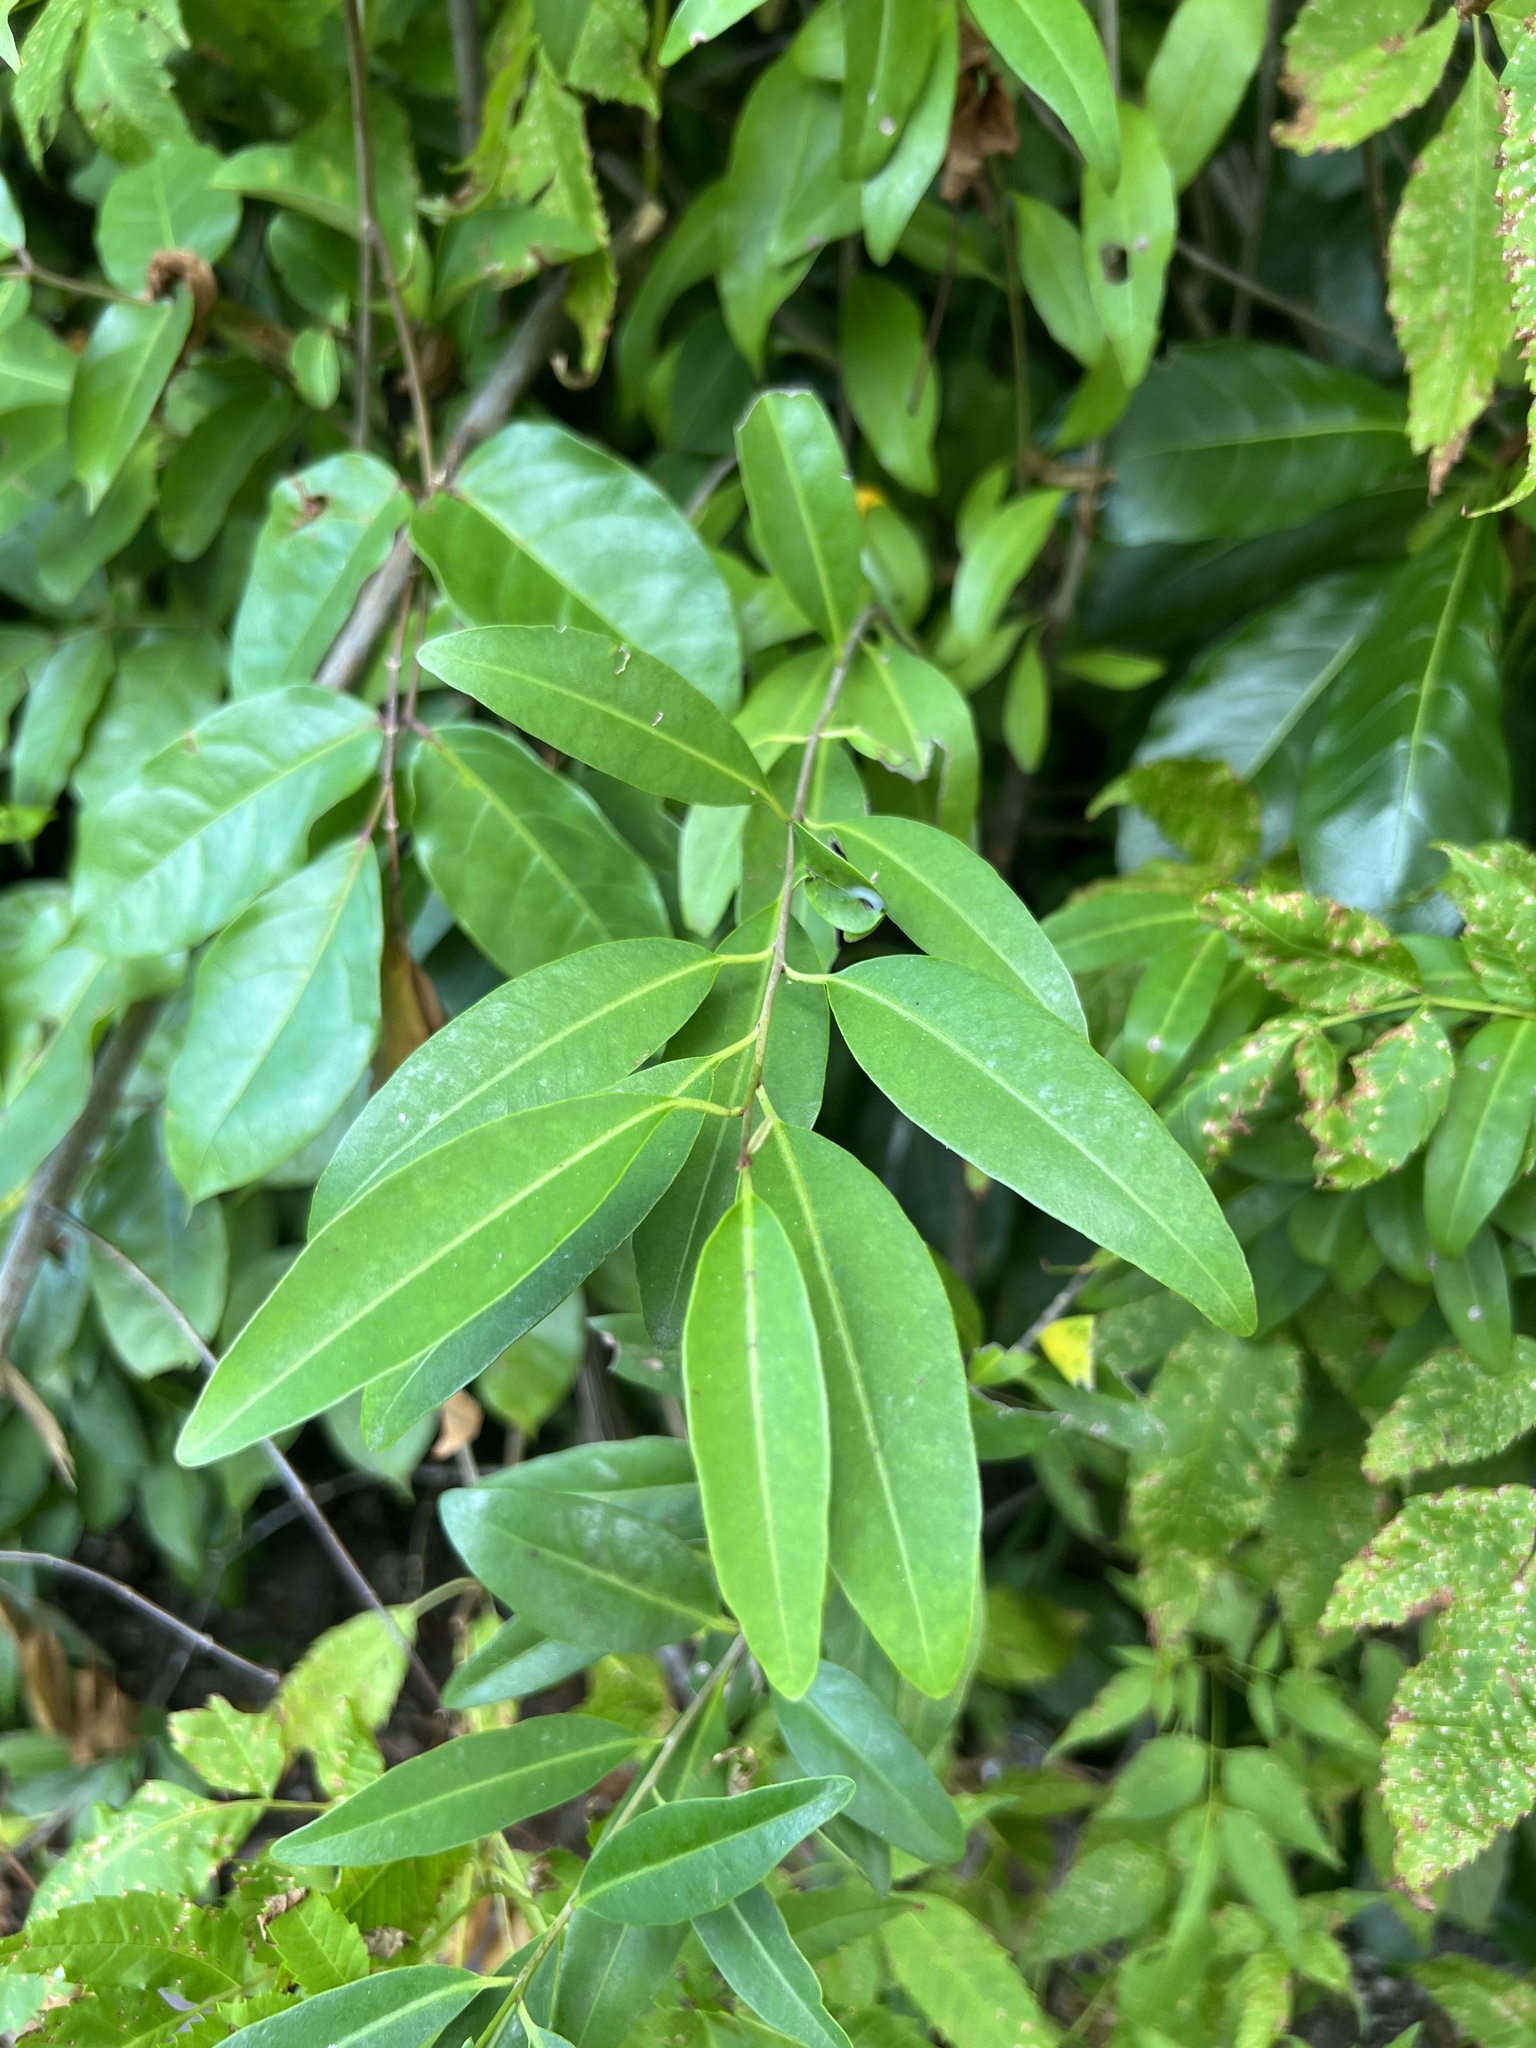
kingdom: Plantae
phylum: Tracheophyta
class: Magnoliopsida
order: Caryophyllales
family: Nyctaginaceae
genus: Guapira
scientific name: Guapira discolor
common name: Beeftree
